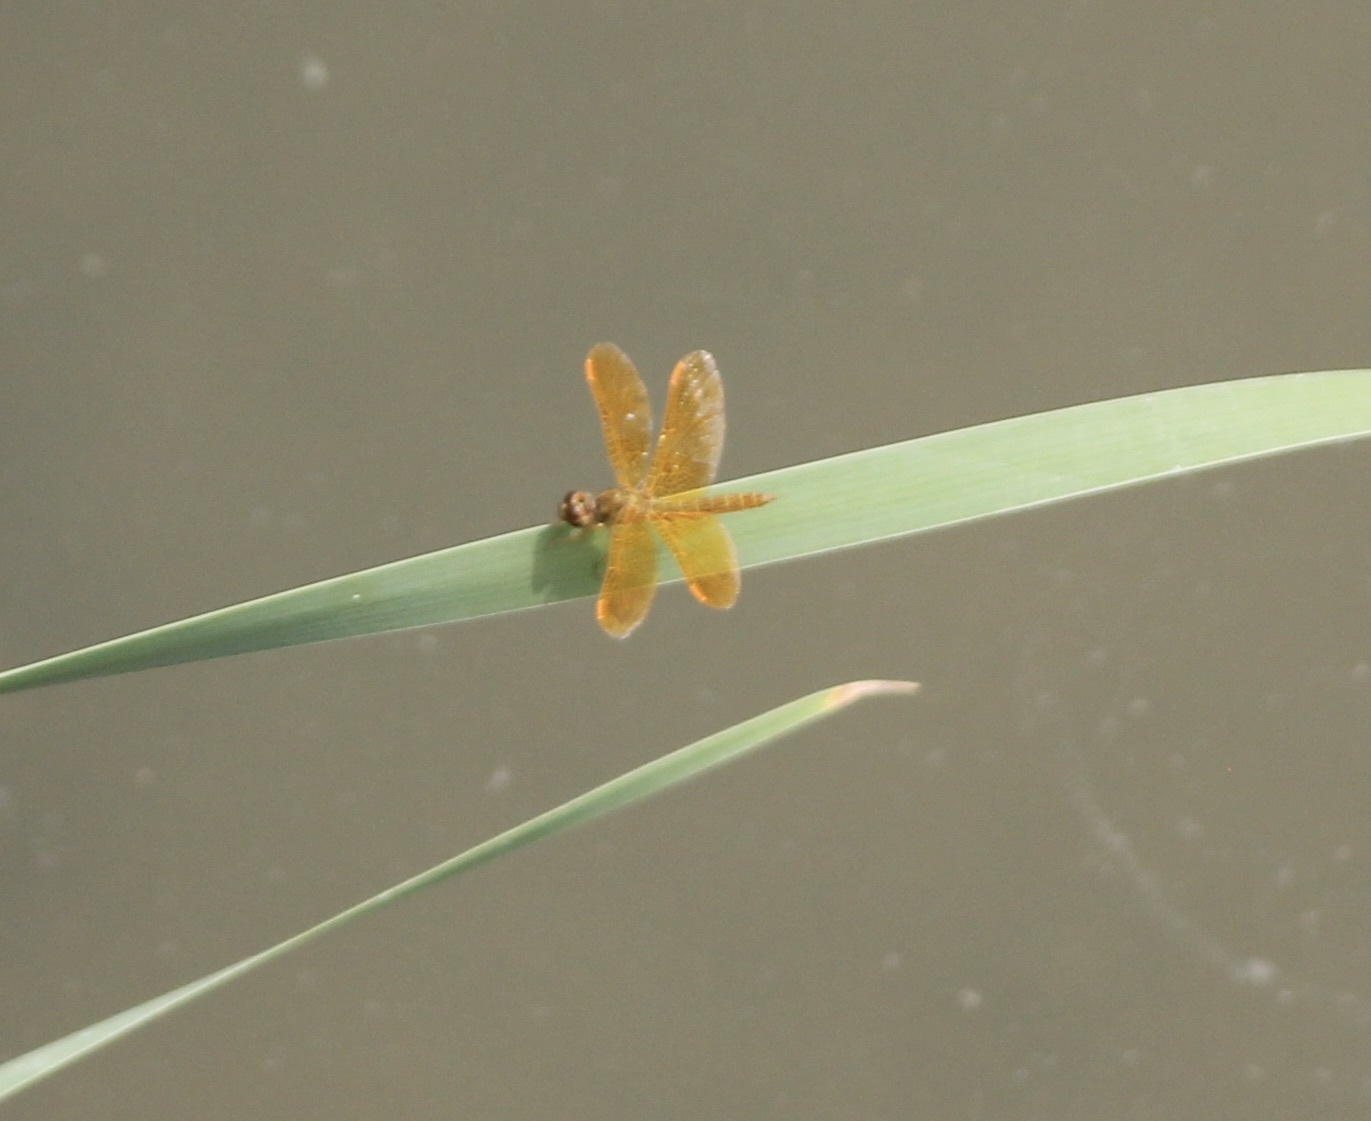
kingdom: Animalia
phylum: Arthropoda
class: Insecta
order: Odonata
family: Libellulidae
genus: Perithemis
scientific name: Perithemis intensa
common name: Mexican amberwing
